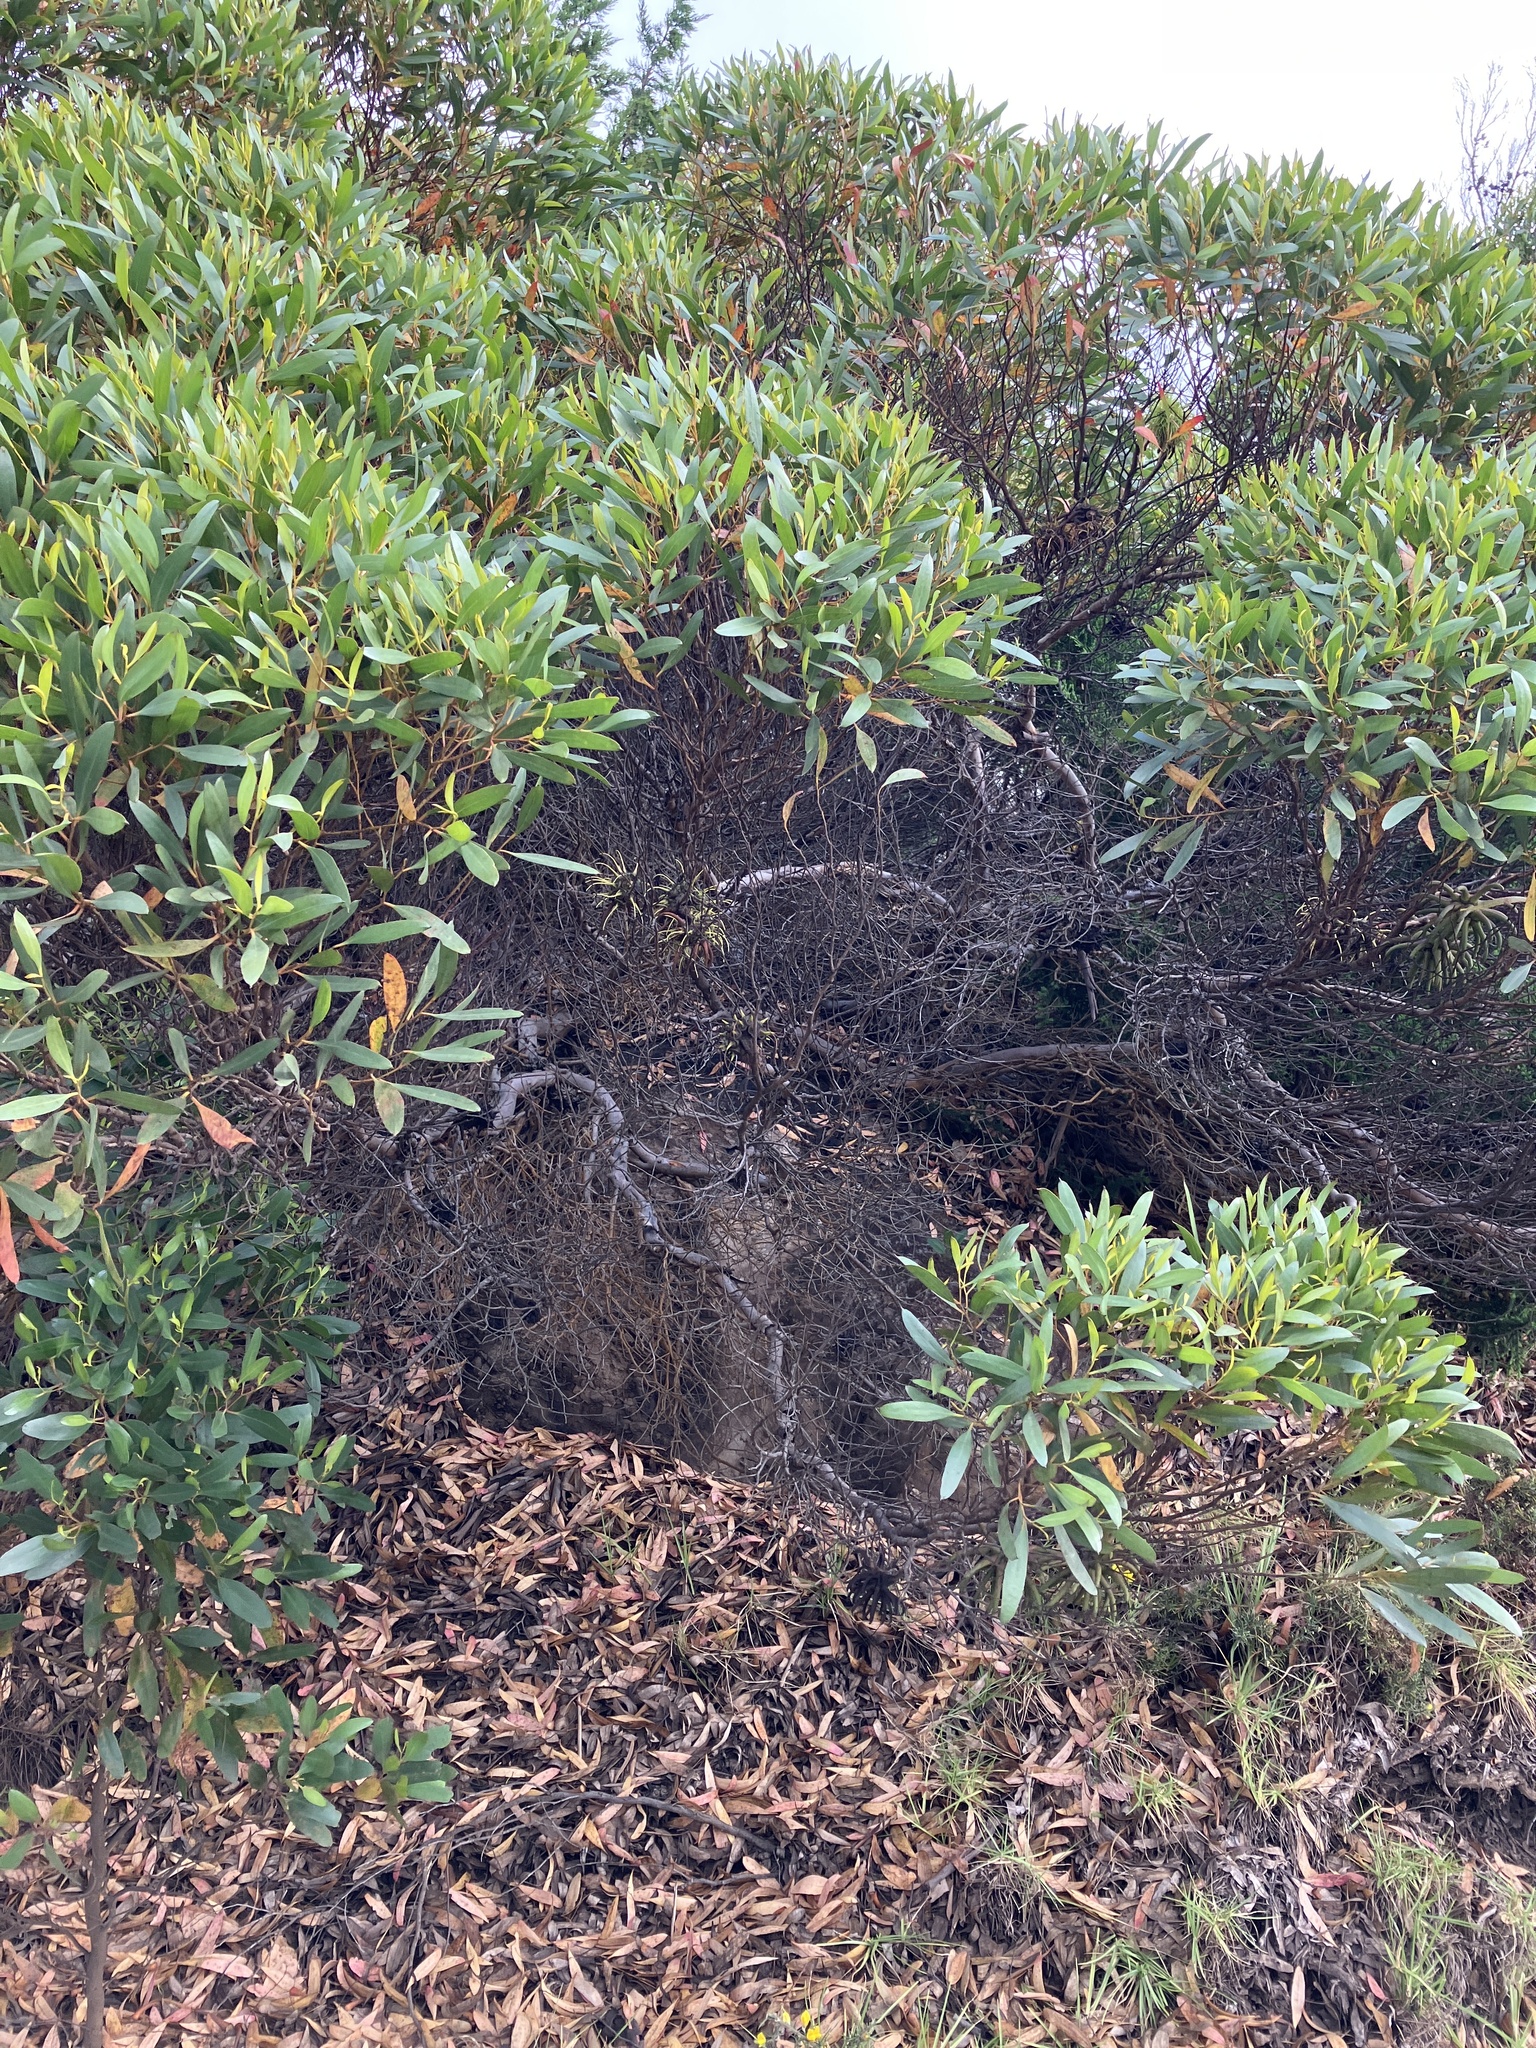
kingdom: Plantae
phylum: Tracheophyta
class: Magnoliopsida
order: Myrtales
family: Myrtaceae
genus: Eucalyptus
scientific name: Eucalyptus lehmannii
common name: Bushy yate
